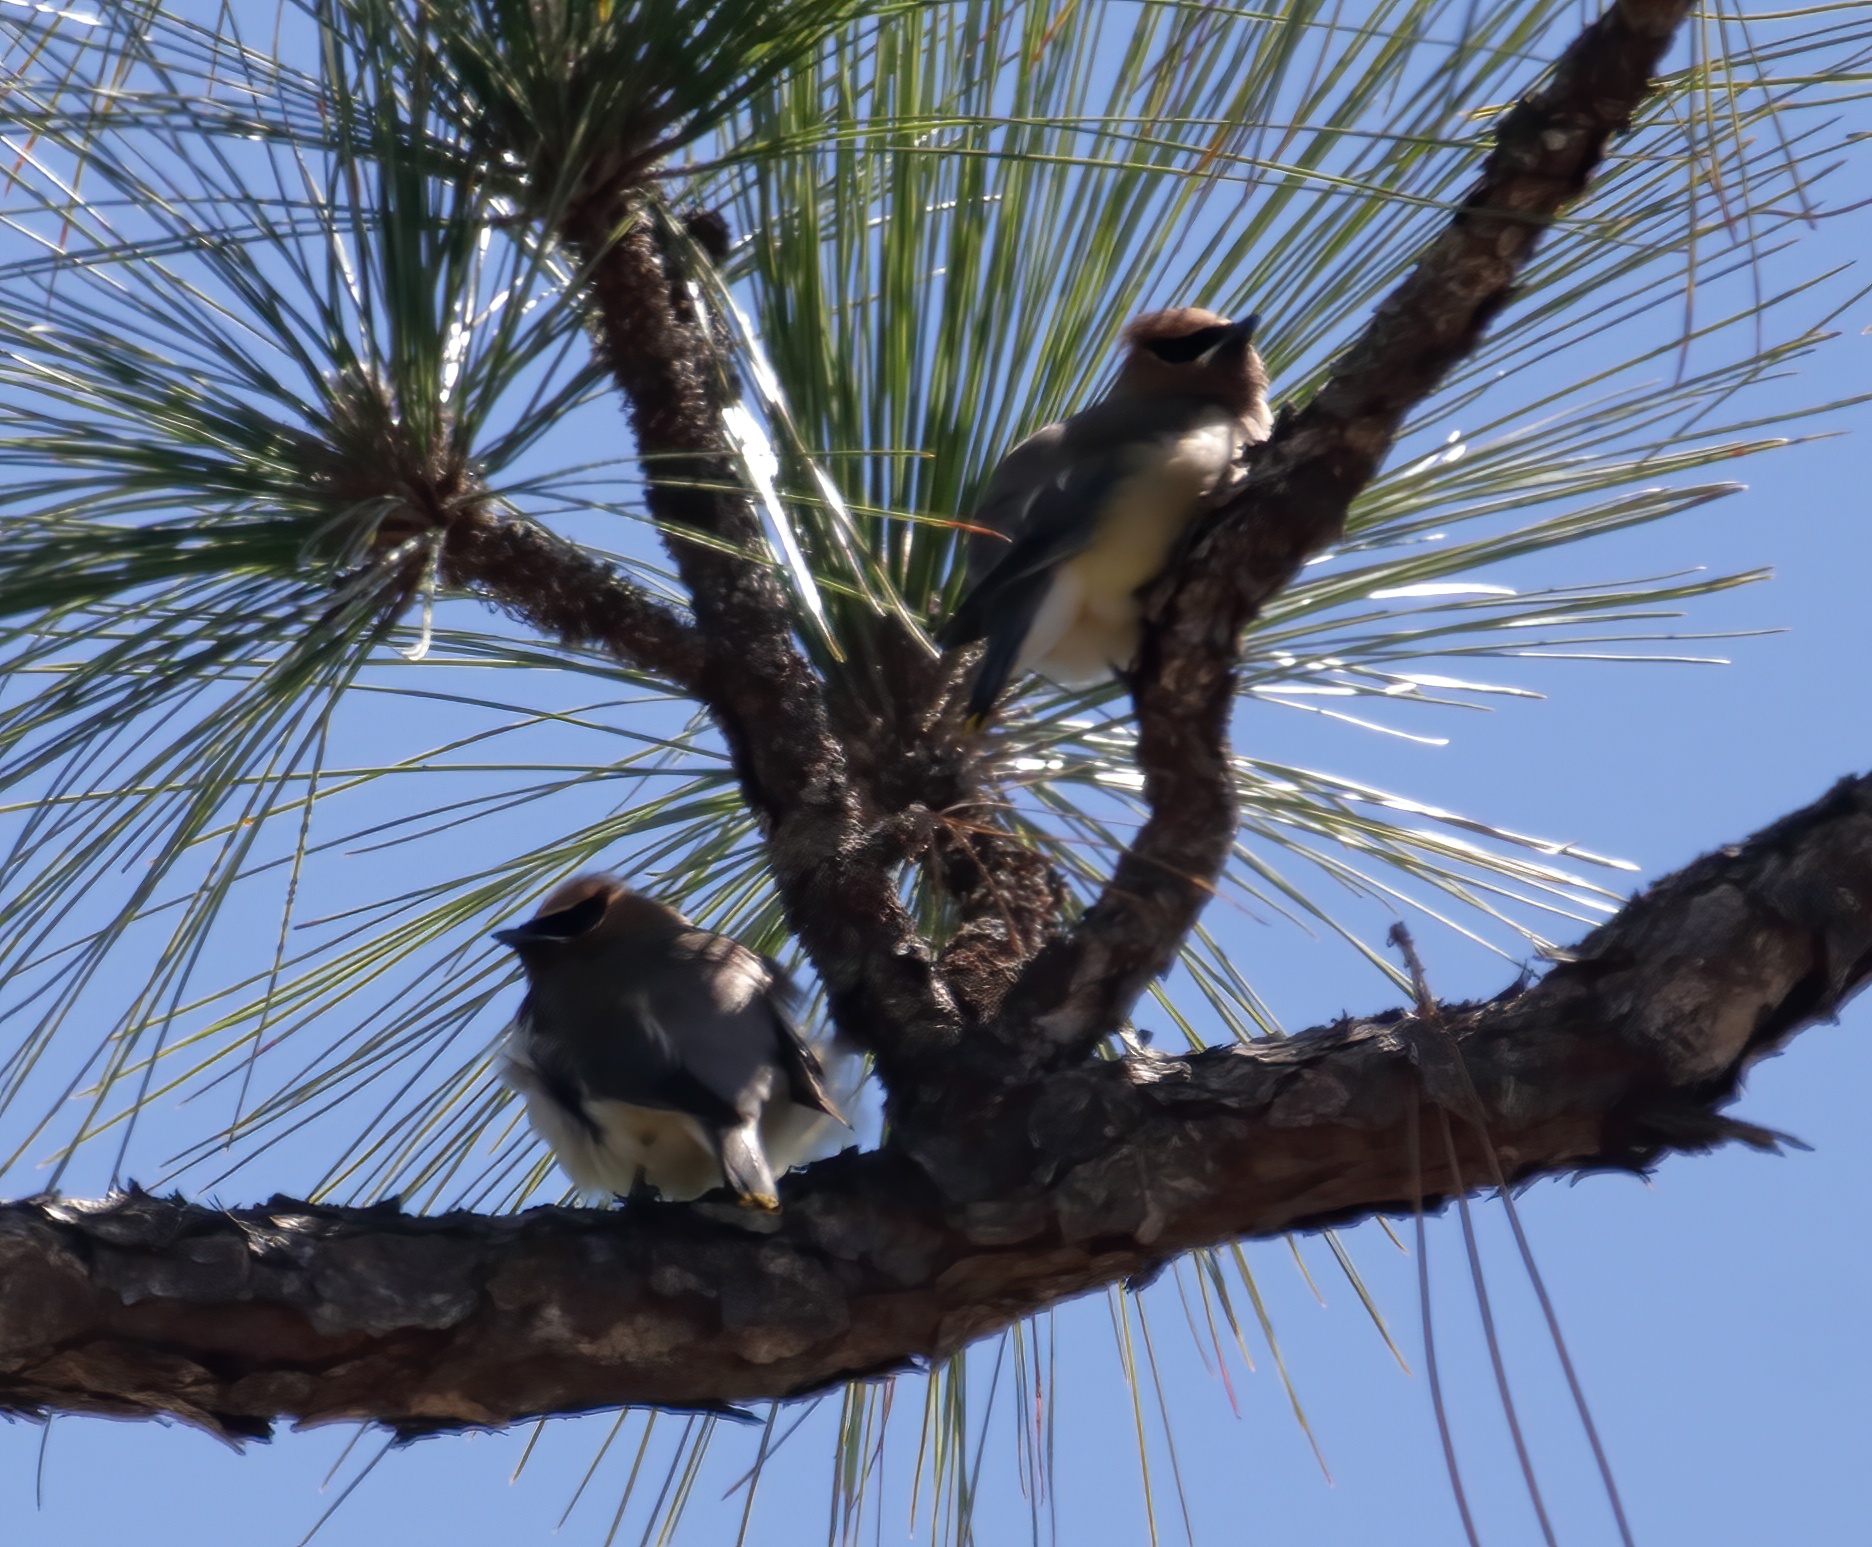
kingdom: Animalia
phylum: Chordata
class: Aves
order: Passeriformes
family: Bombycillidae
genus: Bombycilla
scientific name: Bombycilla cedrorum
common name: Cedar waxwing
